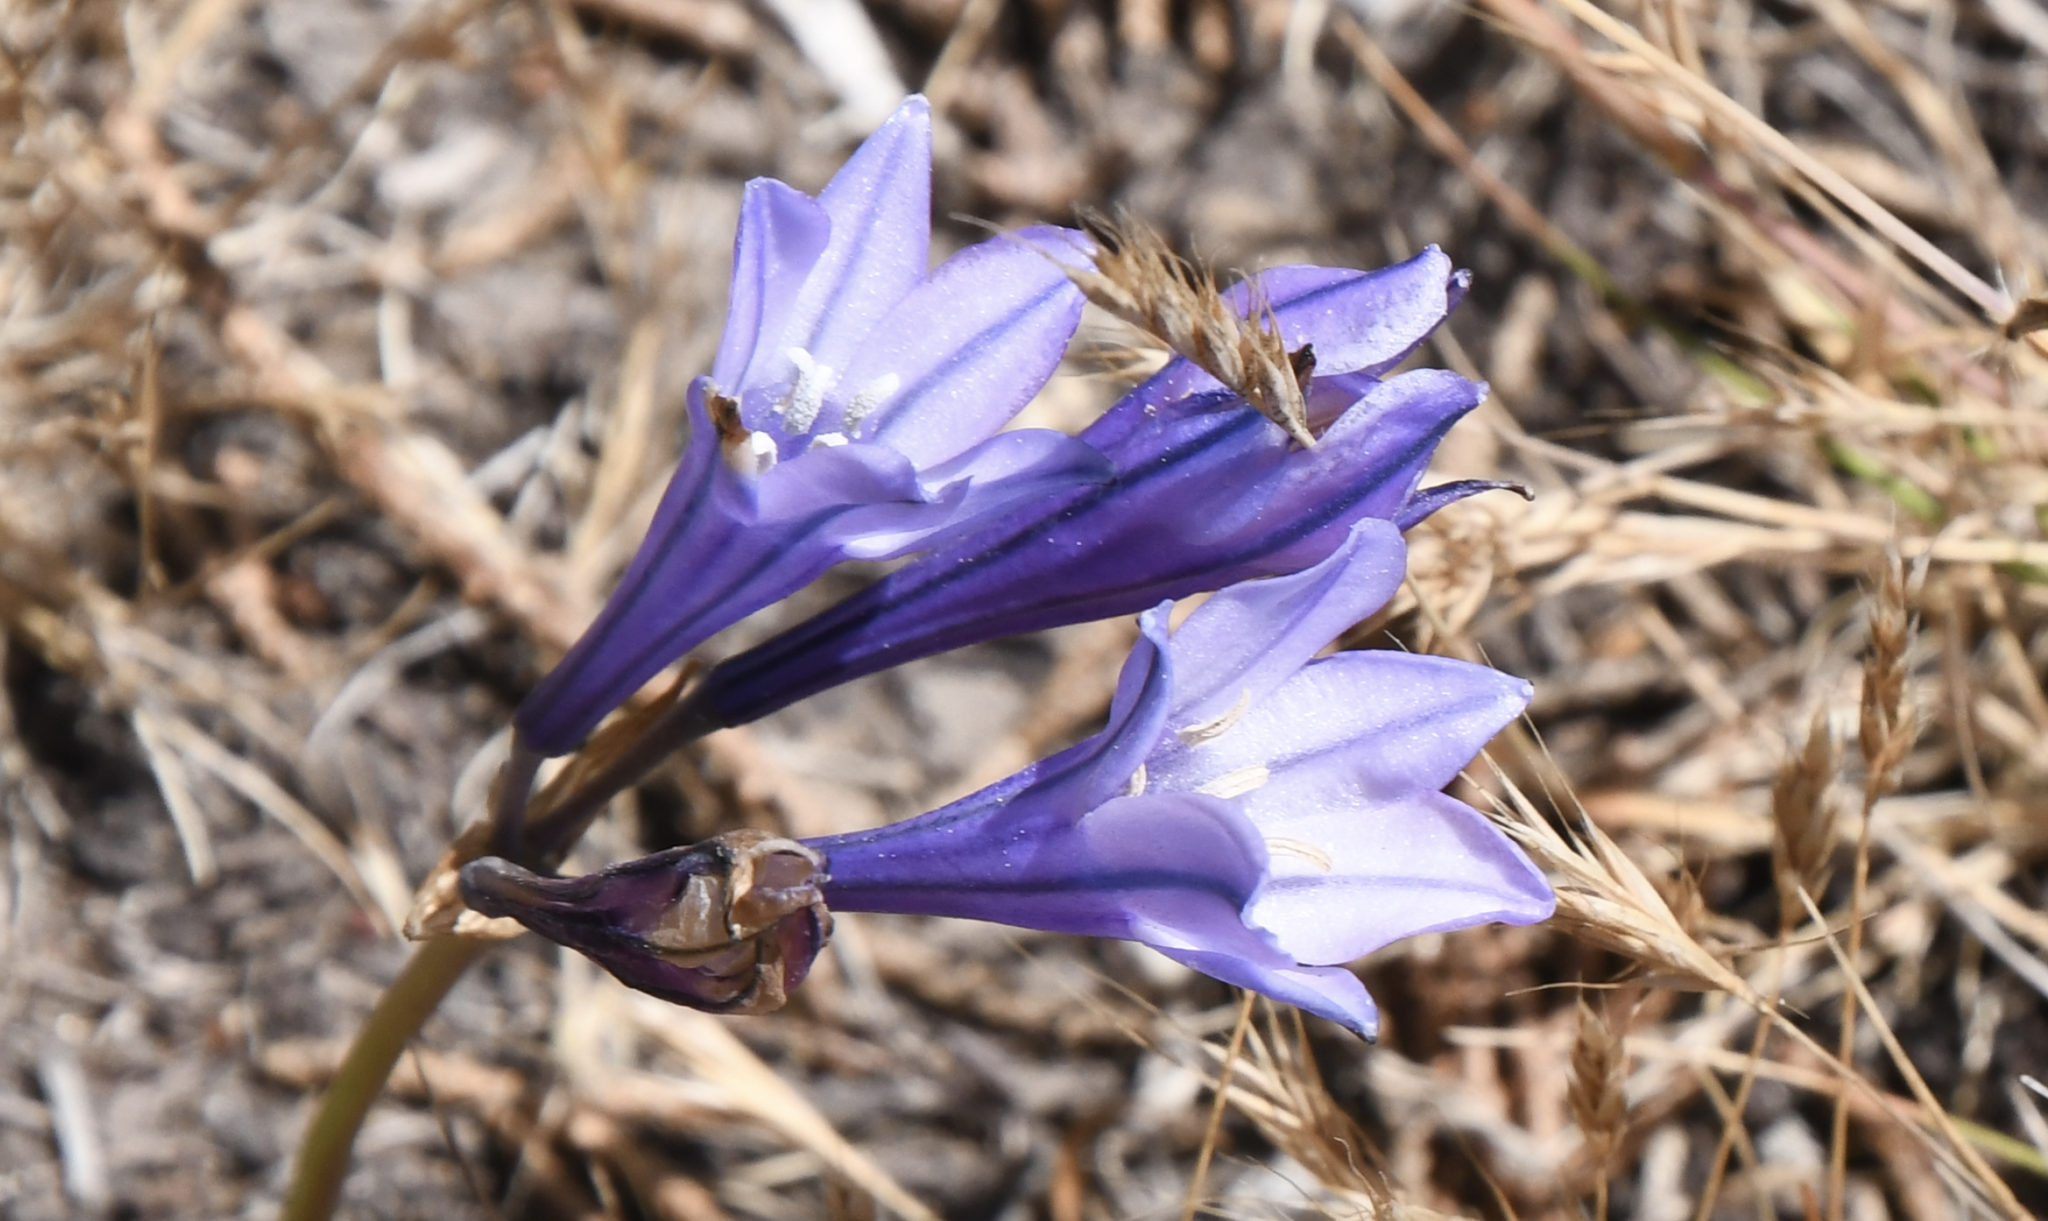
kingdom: Plantae
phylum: Tracheophyta
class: Liliopsida
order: Asparagales
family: Asparagaceae
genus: Triteleia
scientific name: Triteleia laxa
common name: Triplet-lily
